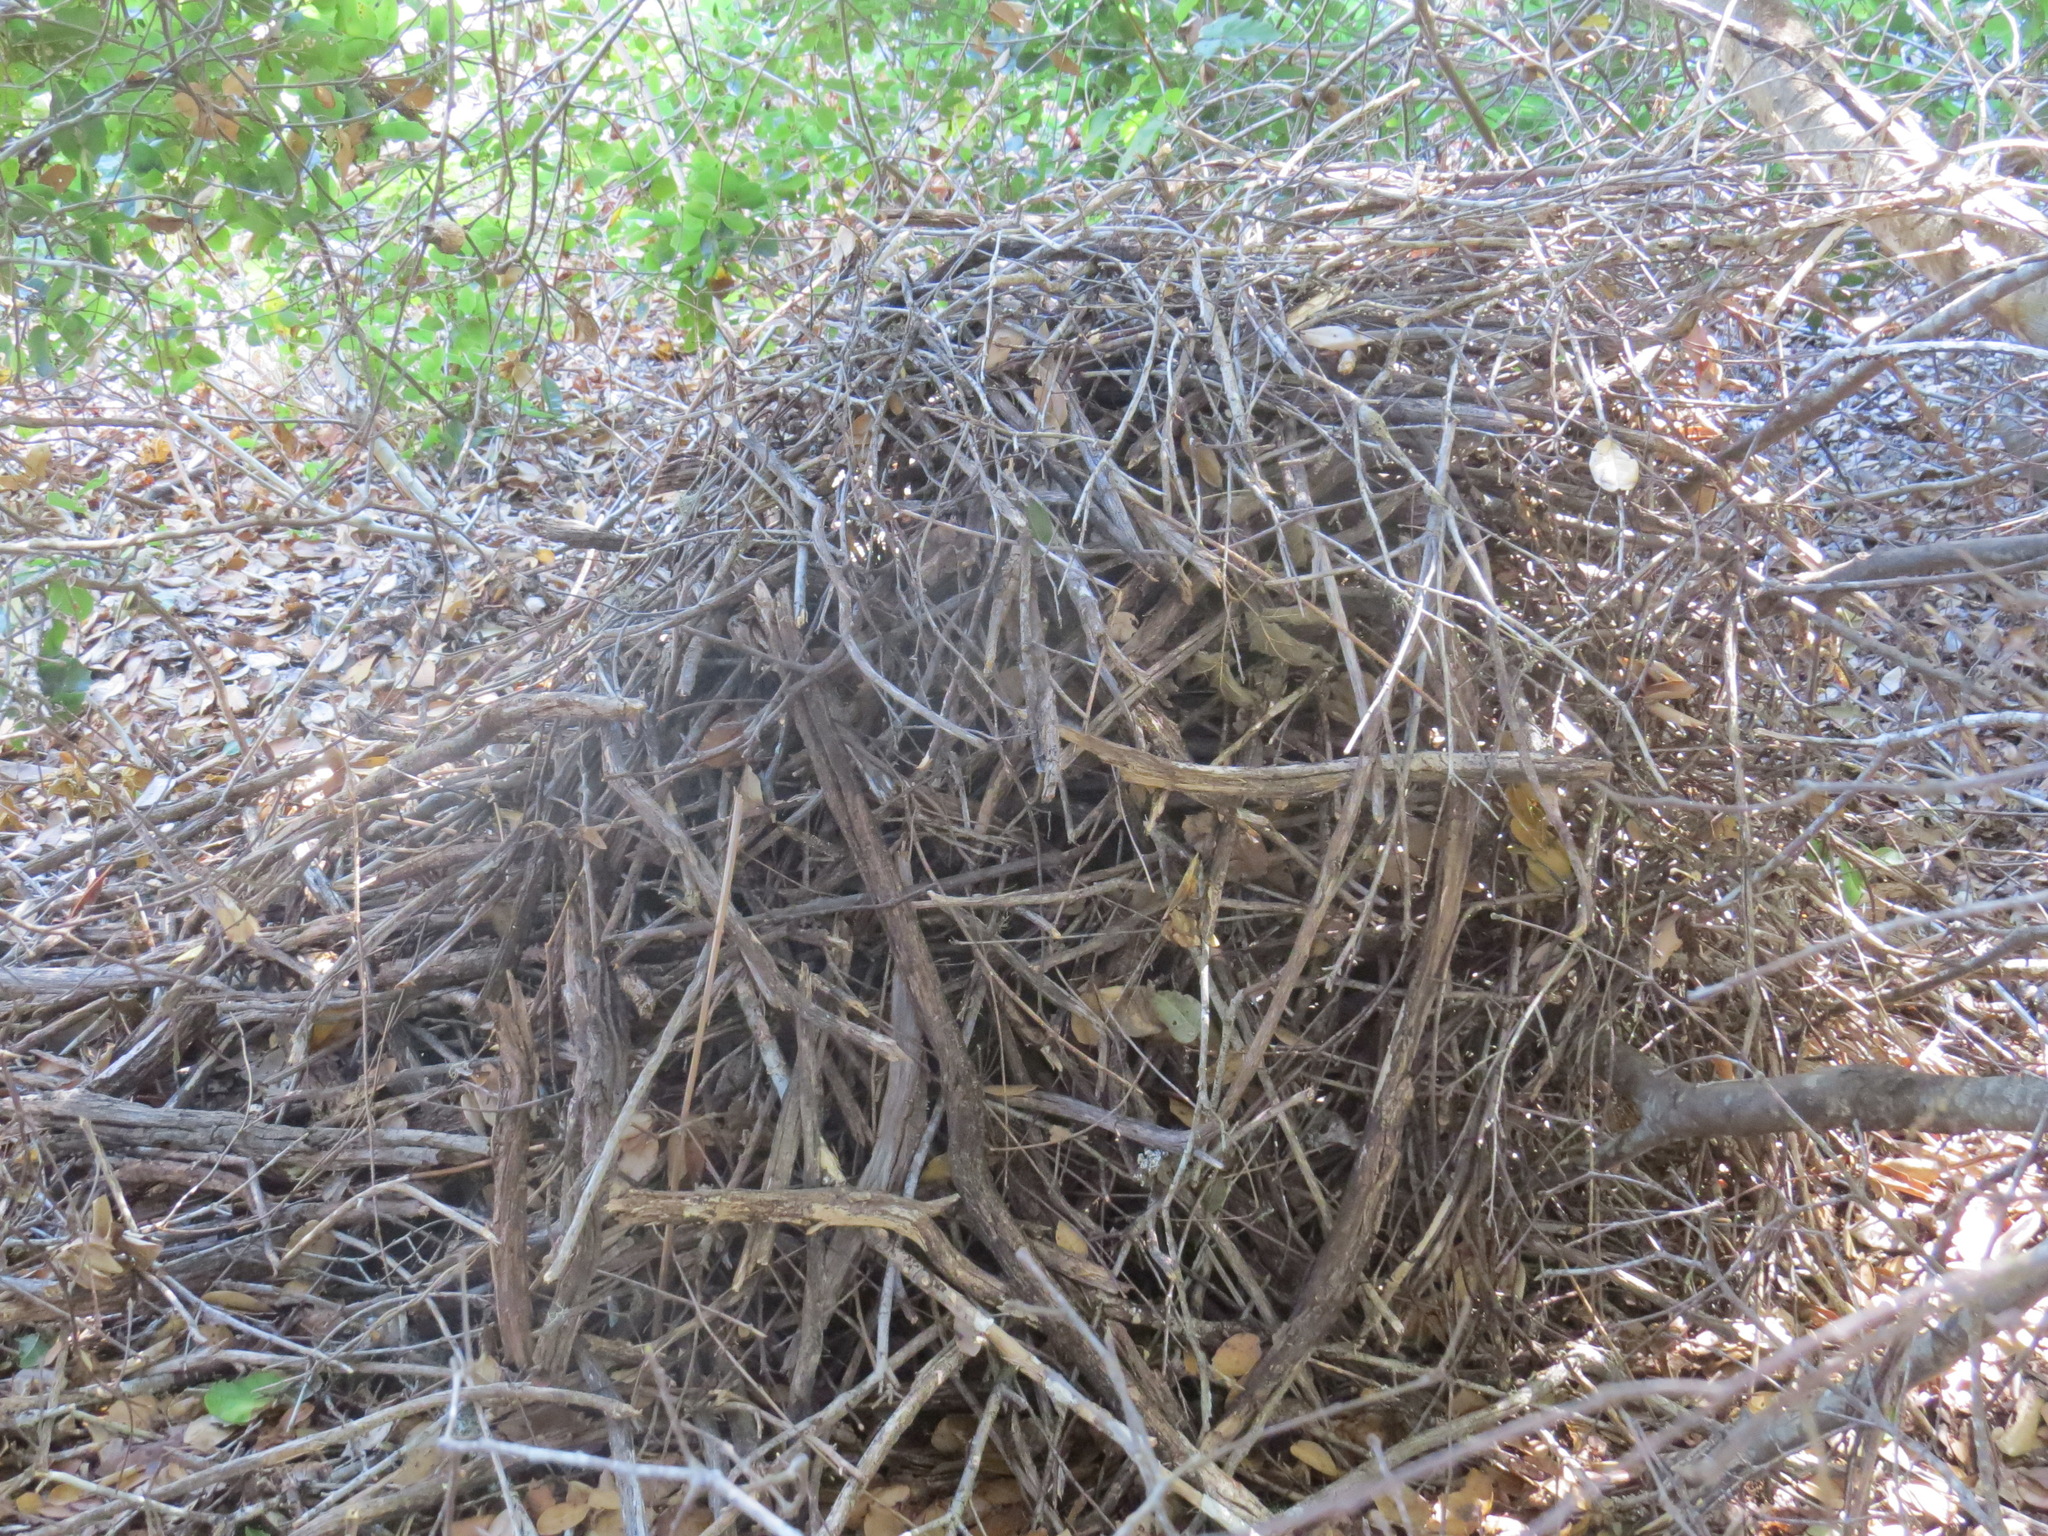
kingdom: Animalia
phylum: Chordata
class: Mammalia
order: Rodentia
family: Cricetidae
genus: Neotoma
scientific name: Neotoma fuscipes
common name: Dusky-footed woodrat
